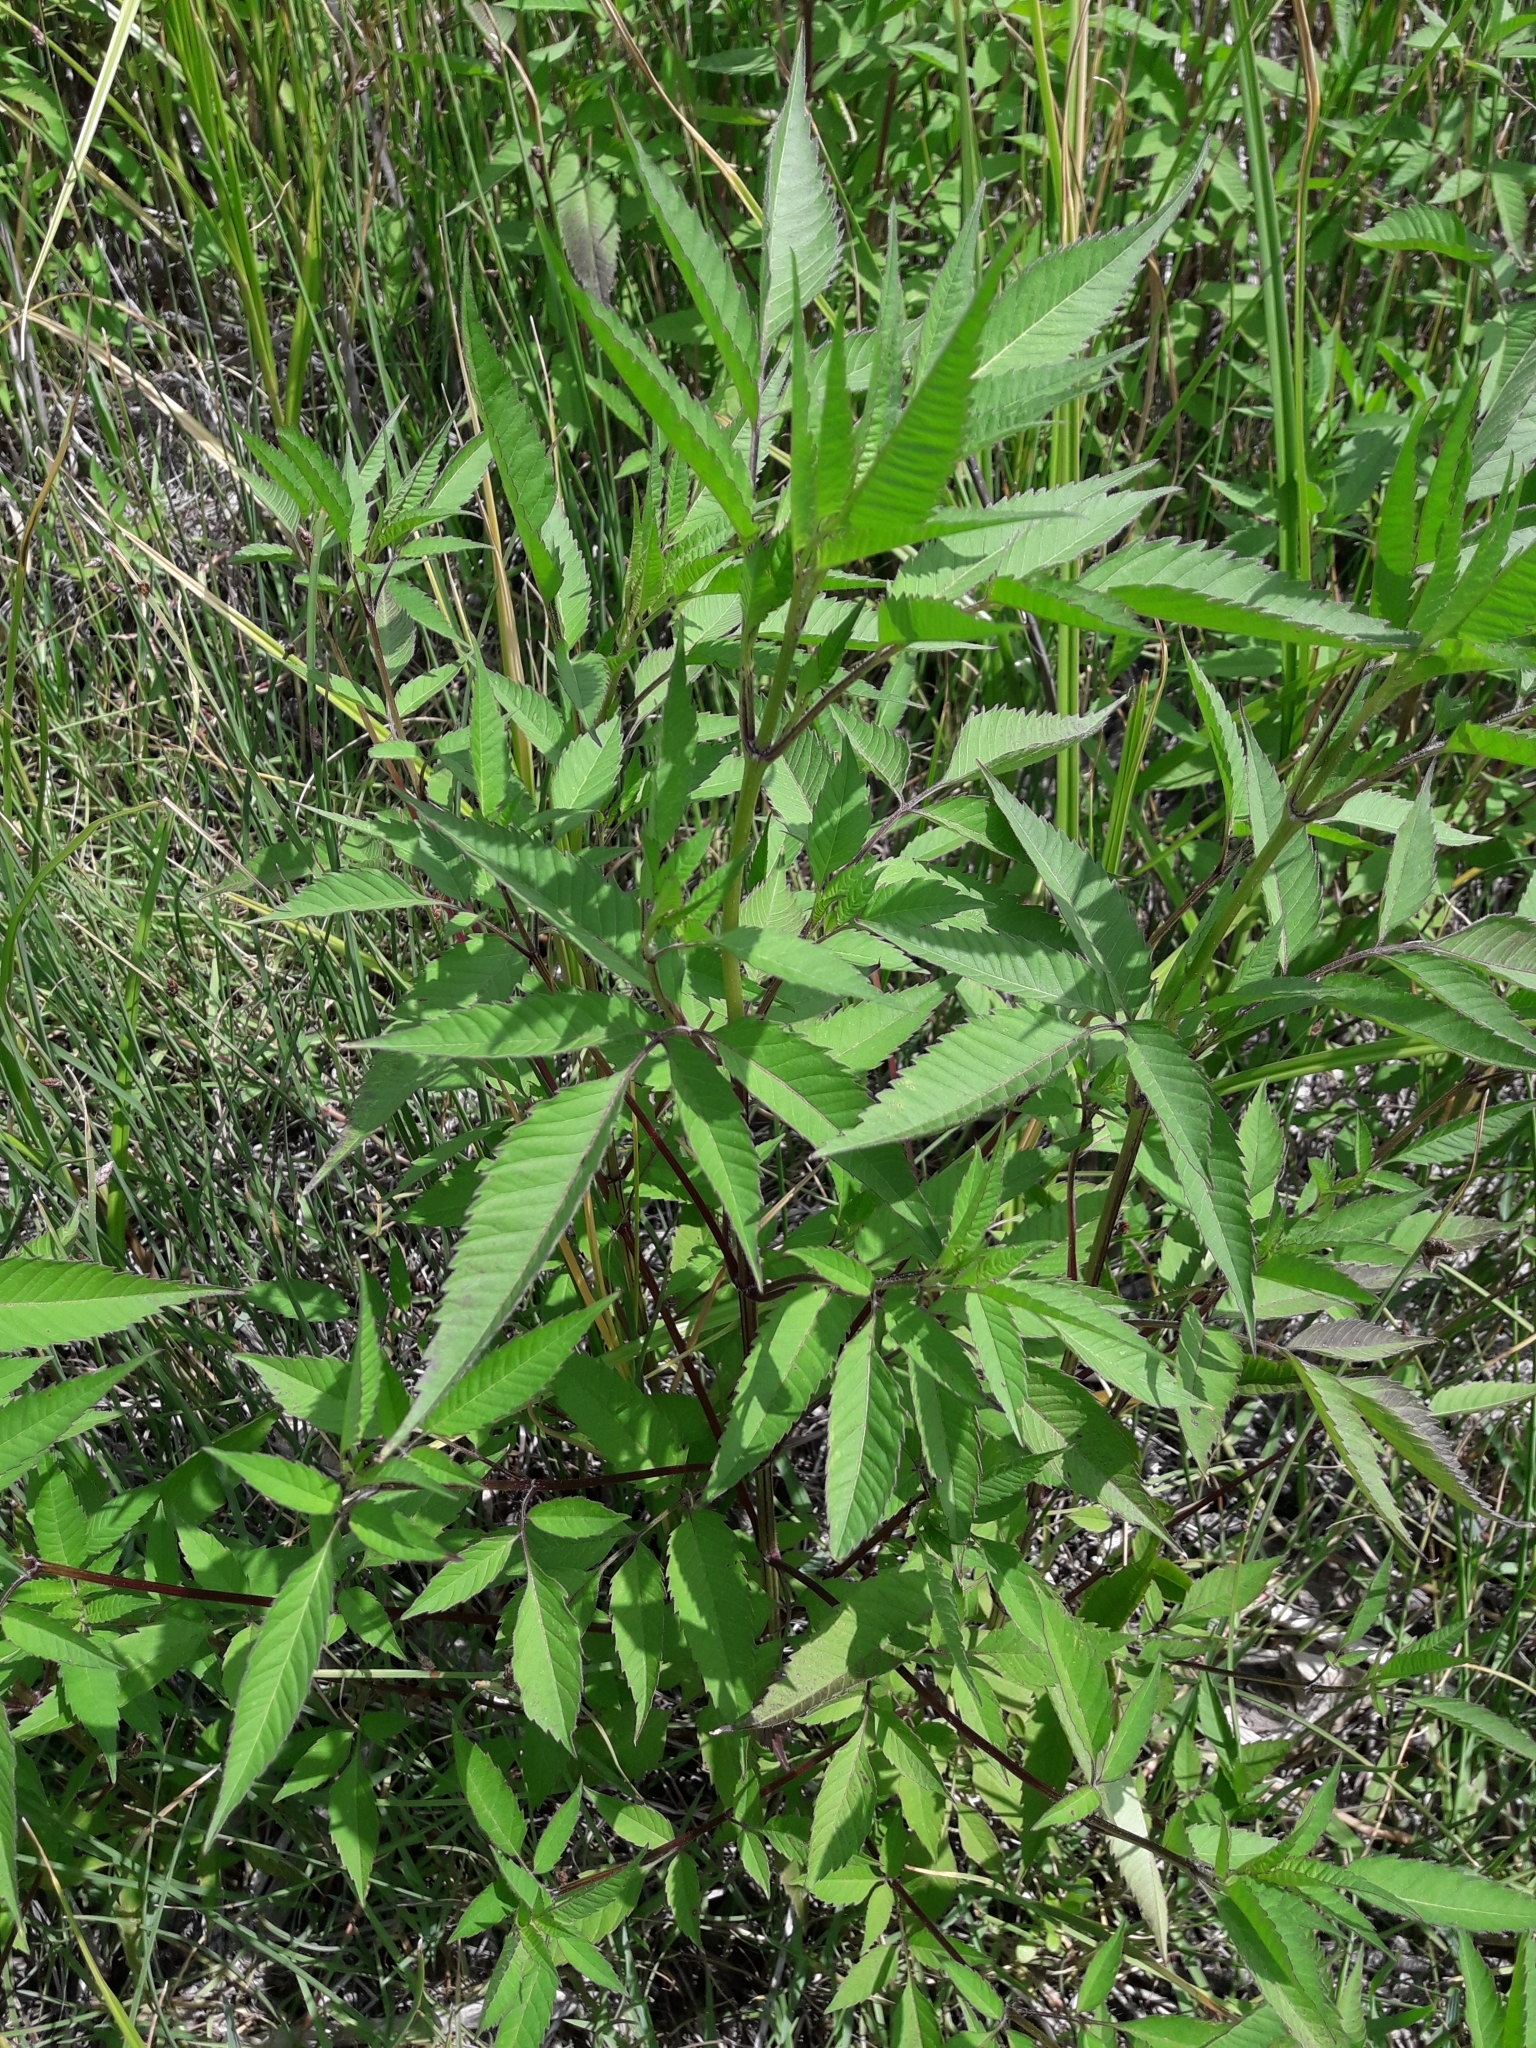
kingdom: Plantae
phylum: Tracheophyta
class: Magnoliopsida
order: Asterales
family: Asteraceae
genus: Bidens
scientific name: Bidens frondosa
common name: Beggarticks
